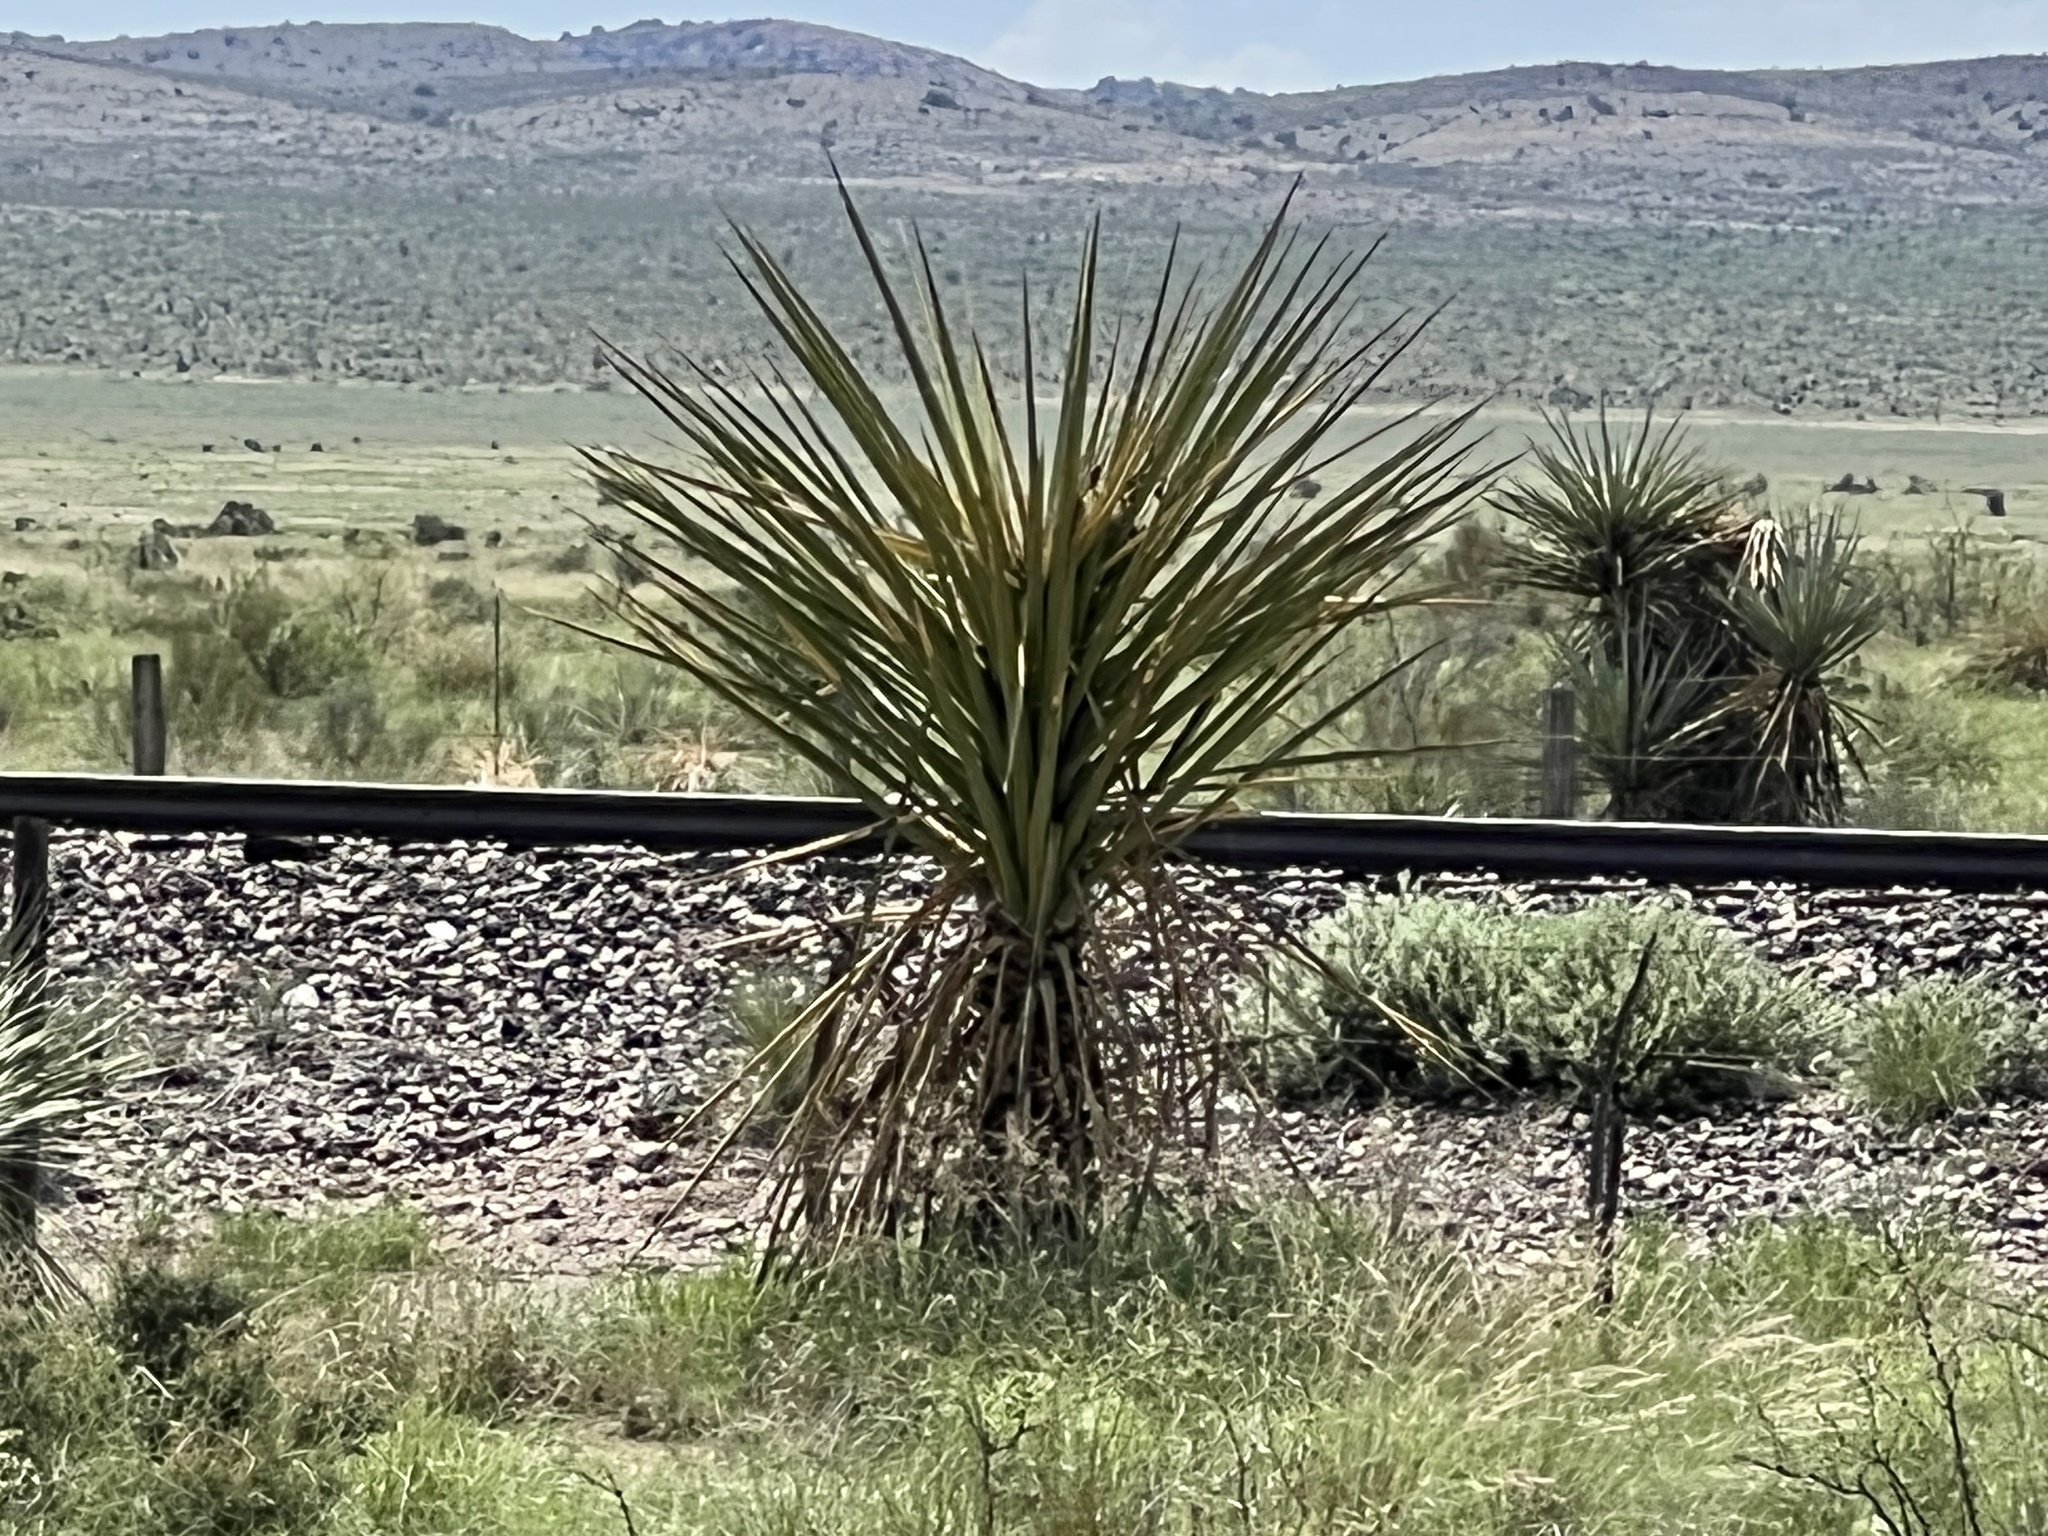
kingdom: Plantae
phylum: Tracheophyta
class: Liliopsida
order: Asparagales
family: Asparagaceae
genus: Yucca
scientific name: Yucca treculiana
